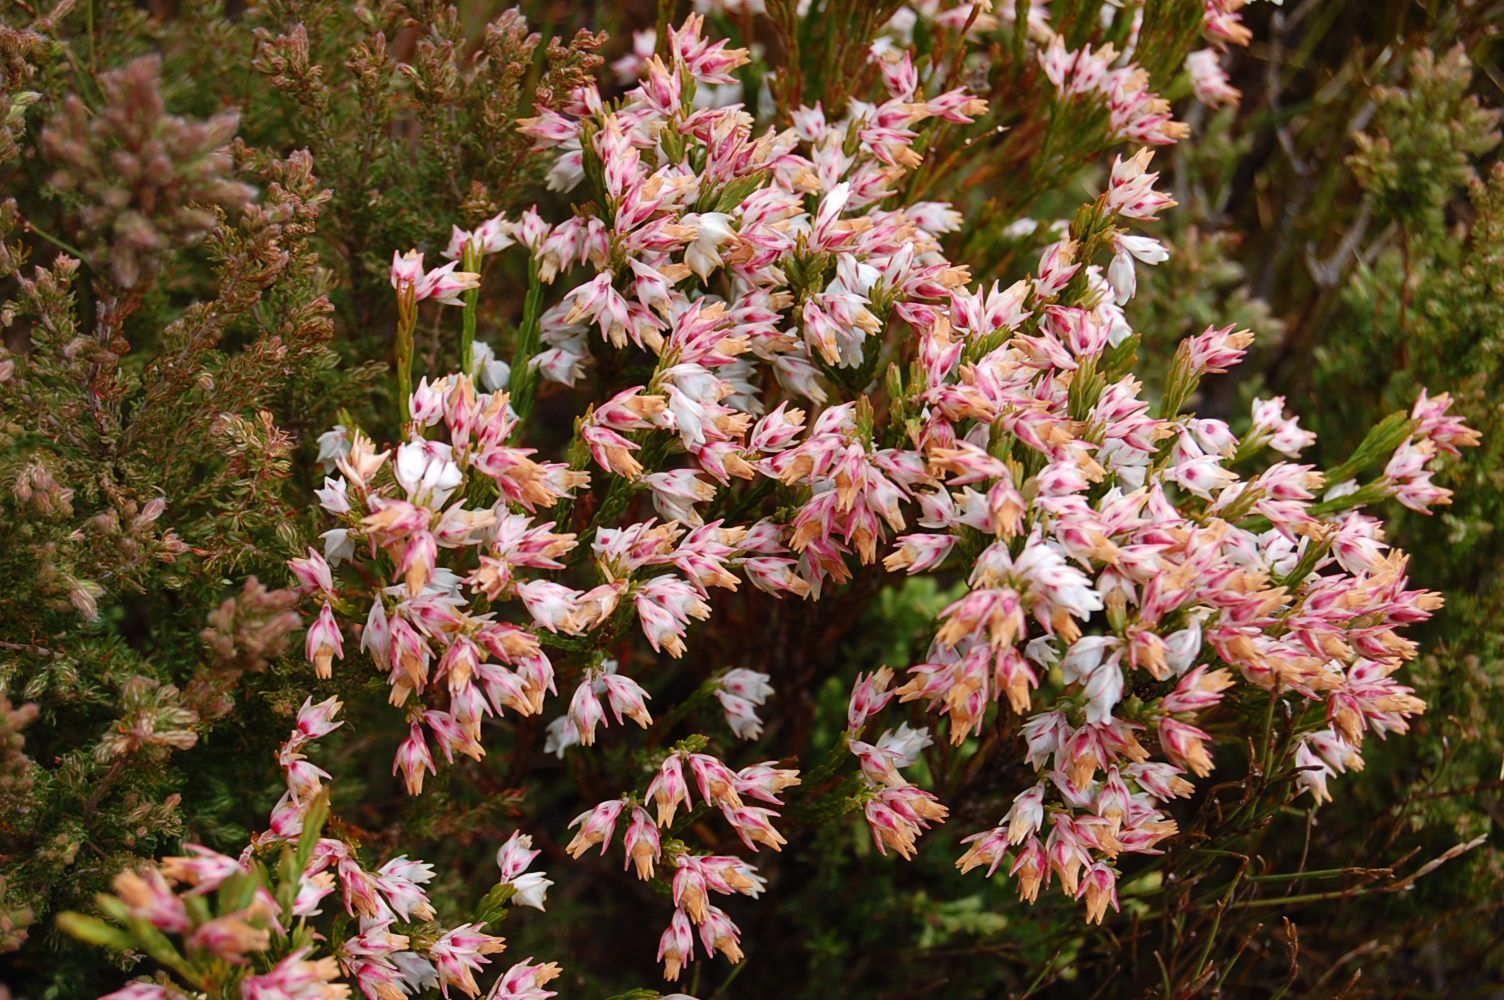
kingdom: Plantae
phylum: Tracheophyta
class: Magnoliopsida
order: Ericales
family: Ericaceae
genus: Erica
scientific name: Erica dianthifolia
